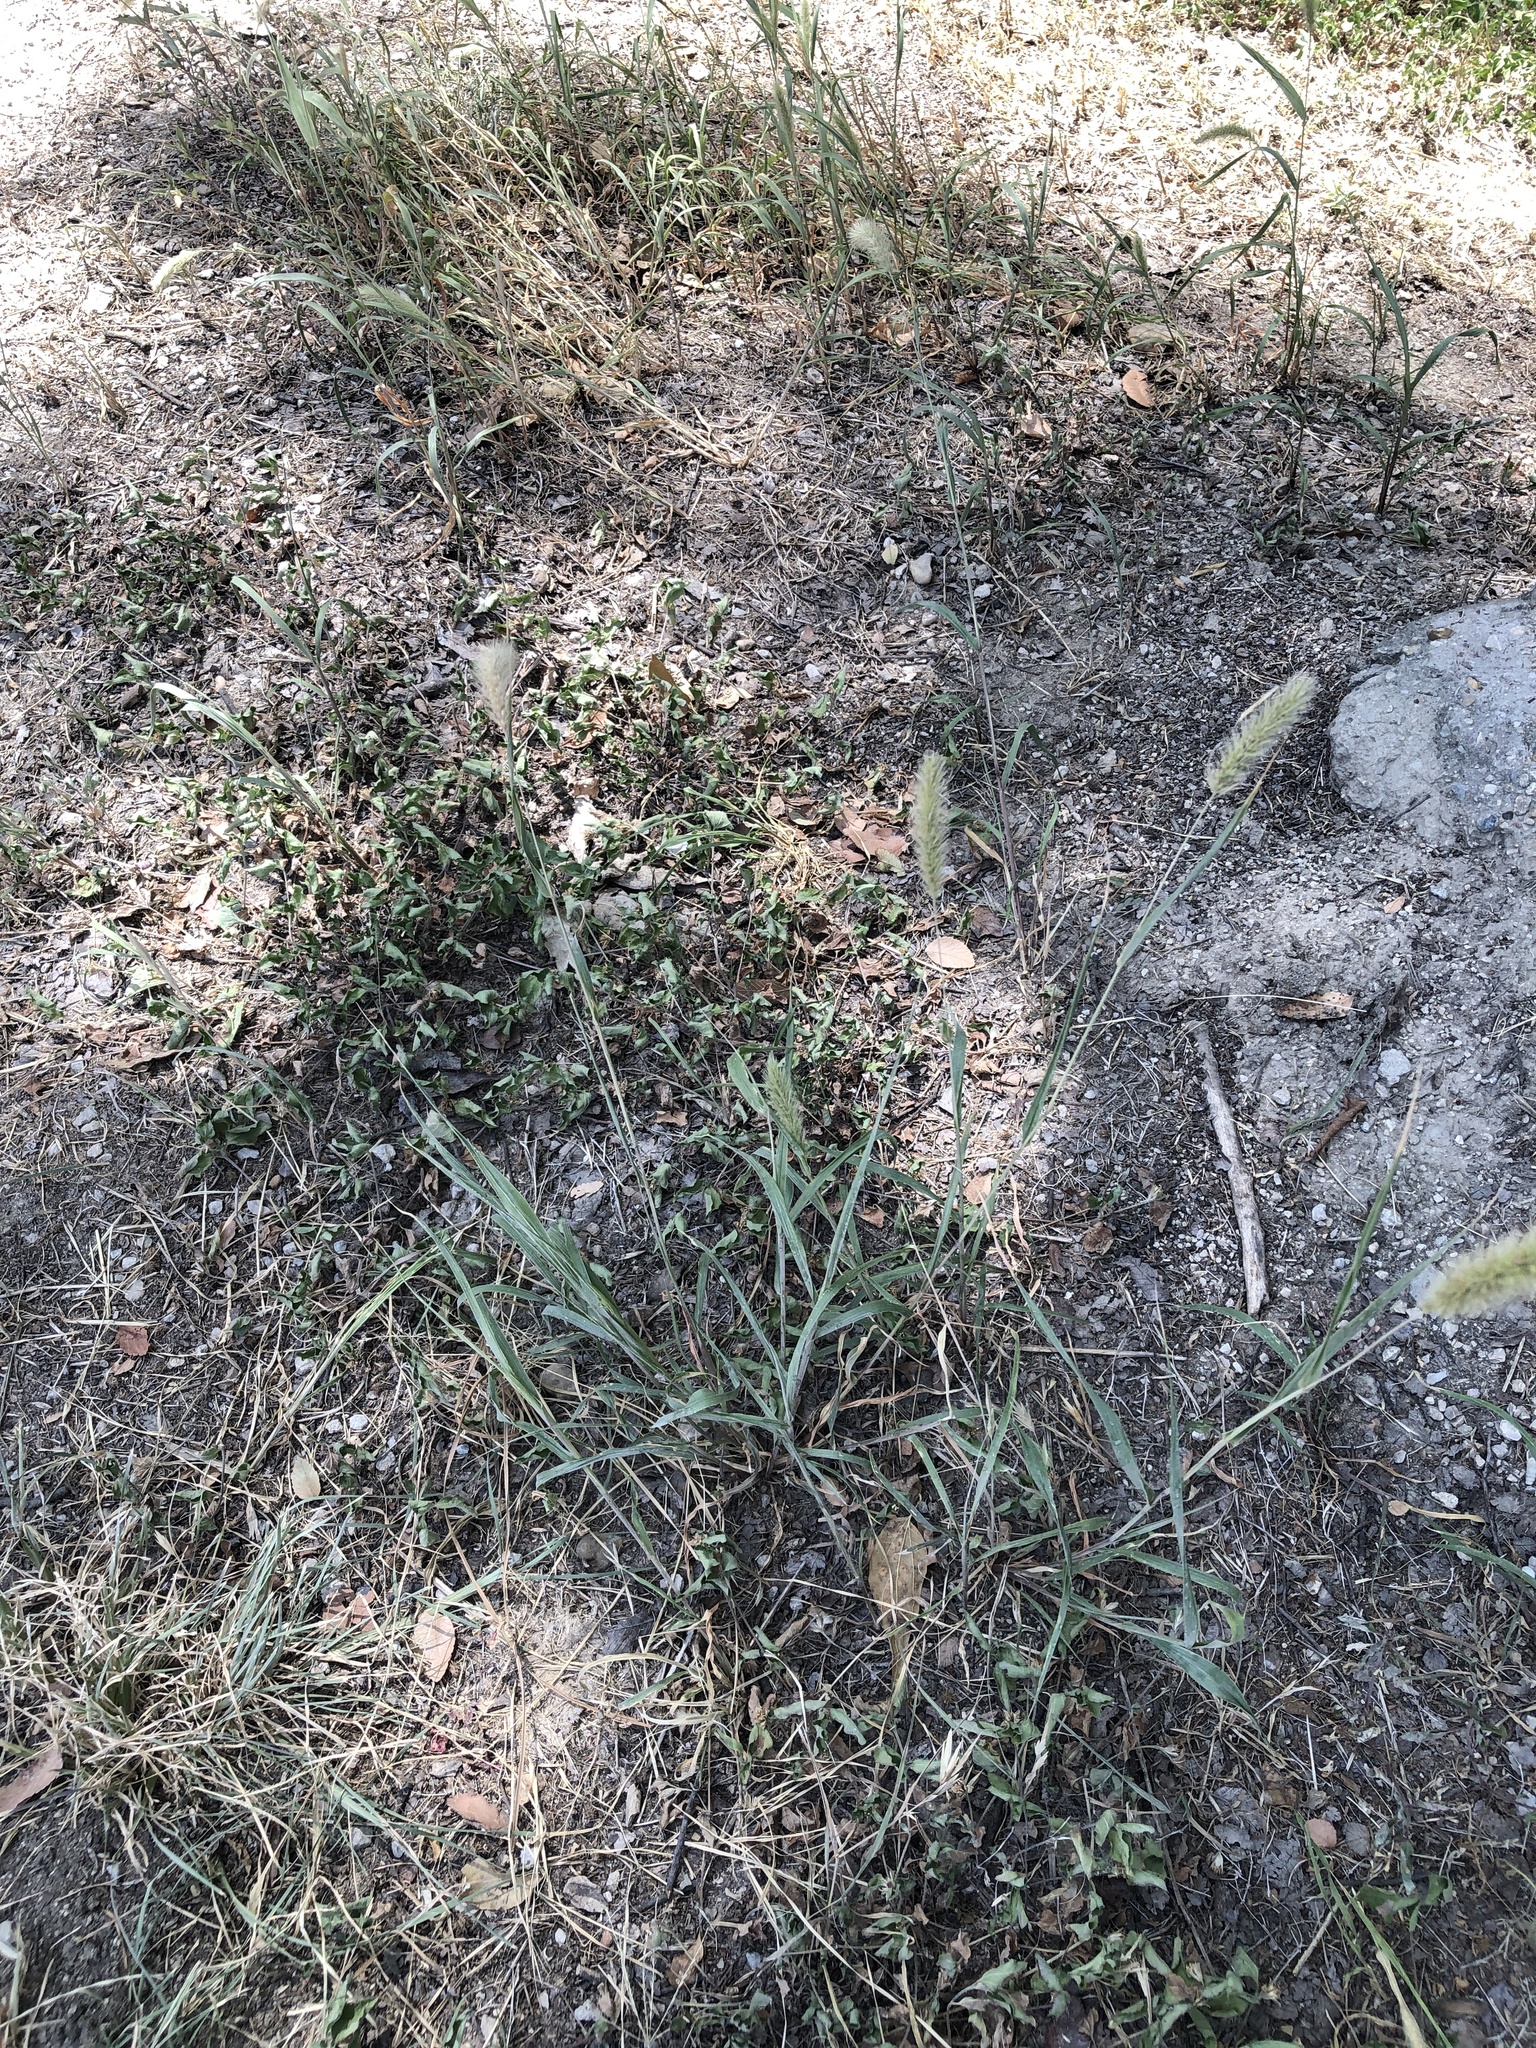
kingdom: Plantae
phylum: Tracheophyta
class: Liliopsida
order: Poales
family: Poaceae
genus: Setaria
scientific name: Setaria viridis
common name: Green bristlegrass
